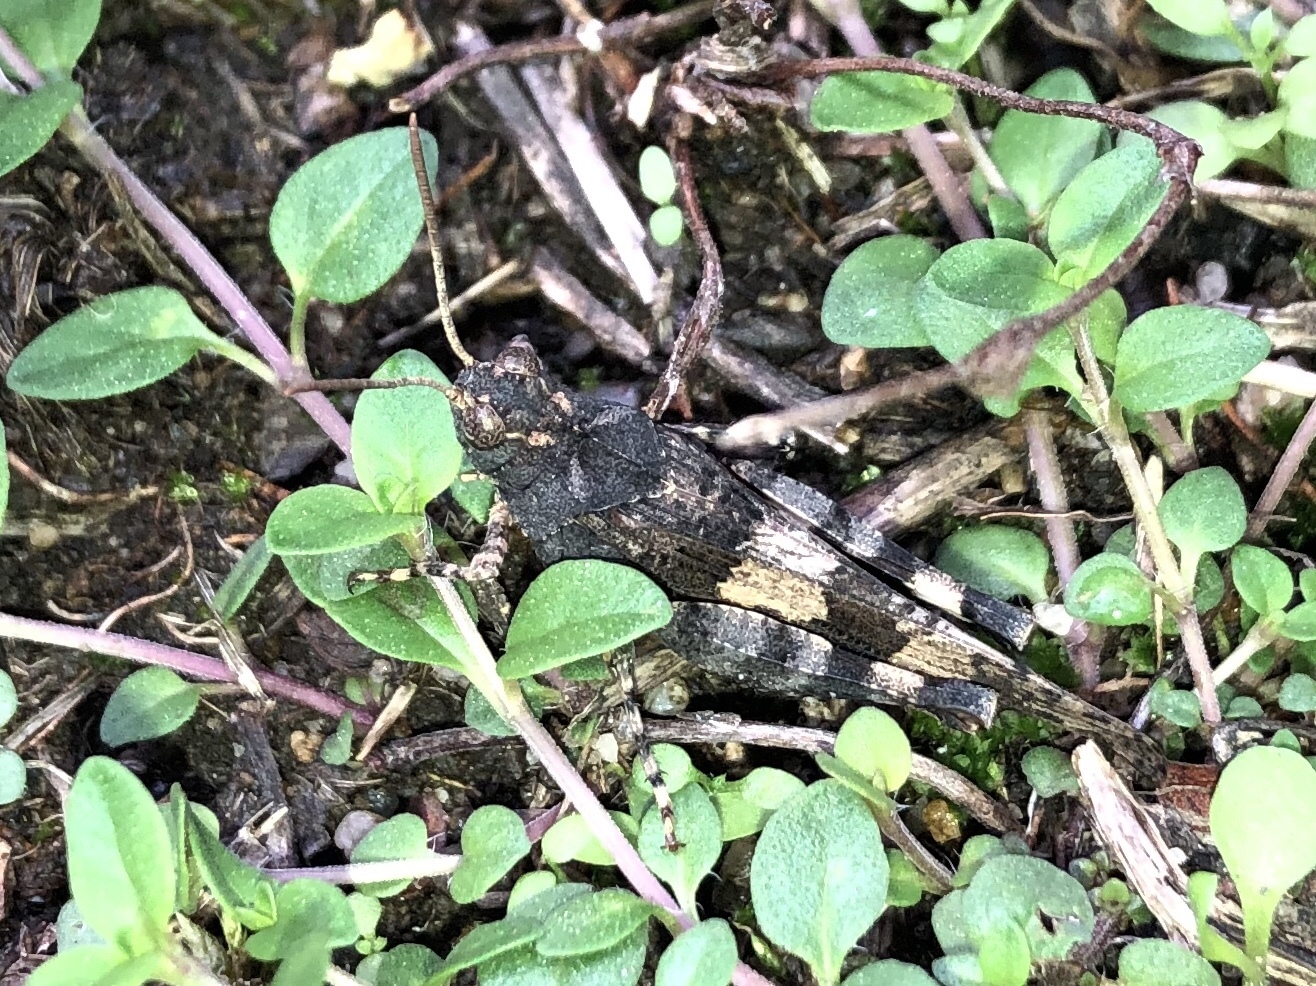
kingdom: Animalia
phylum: Arthropoda
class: Insecta
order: Orthoptera
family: Acrididae
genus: Oedipoda
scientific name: Oedipoda caerulescens
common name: Blue-winged grasshopper
